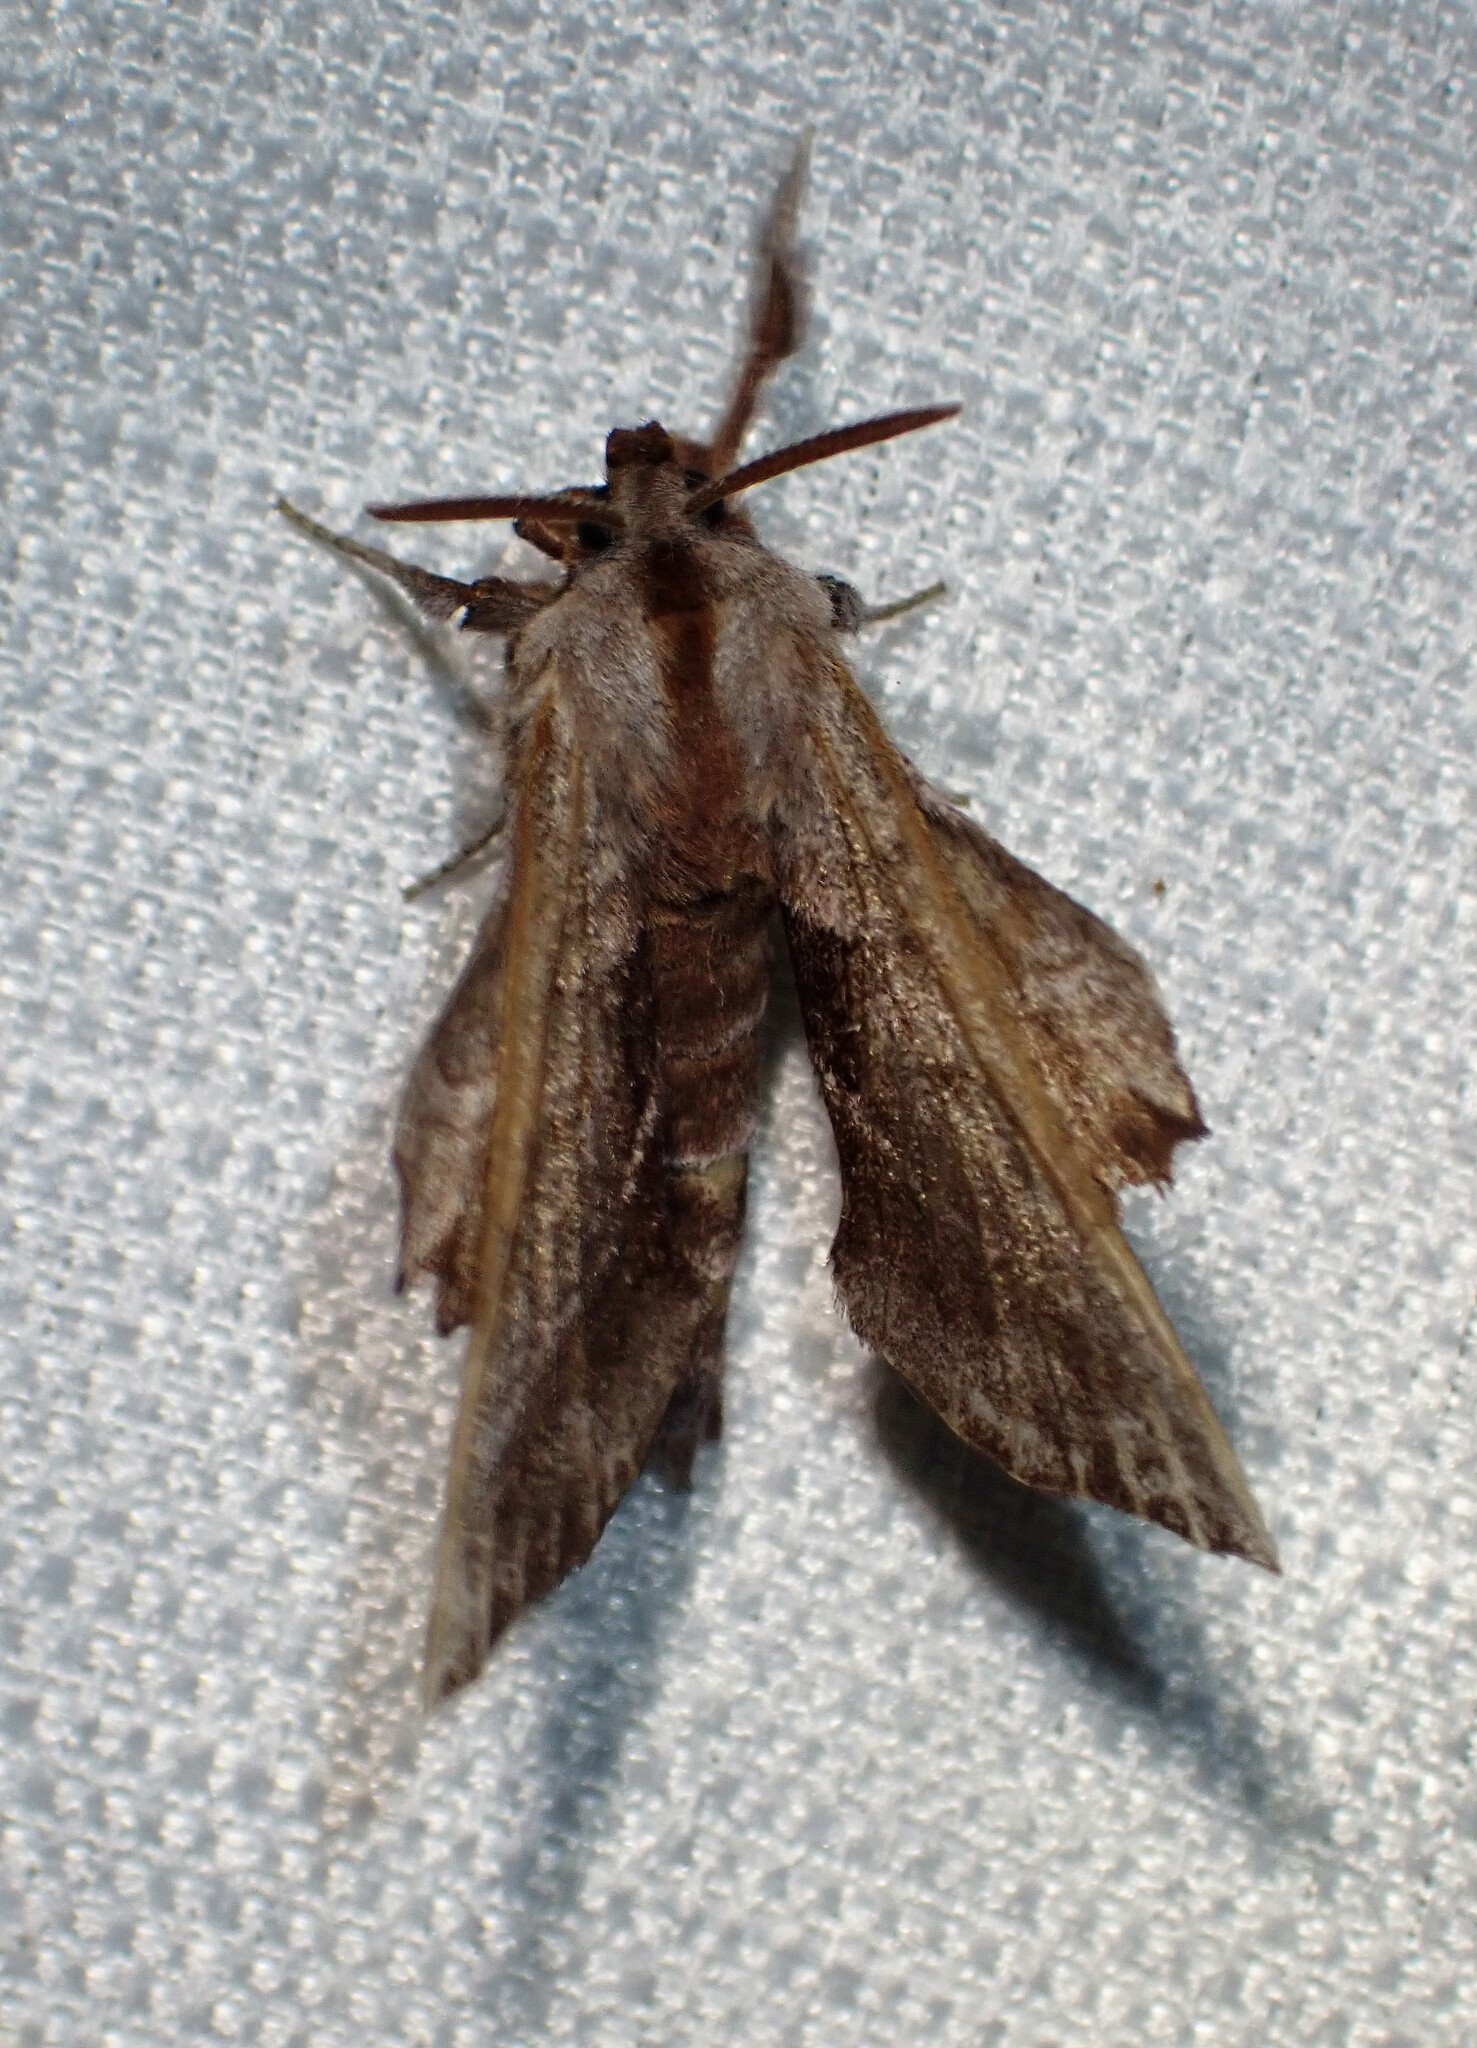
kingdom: Animalia
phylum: Arthropoda
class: Insecta
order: Lepidoptera
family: Sphingidae
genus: Amorpha
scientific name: Amorpha juglandis
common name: Walnut sphinx
